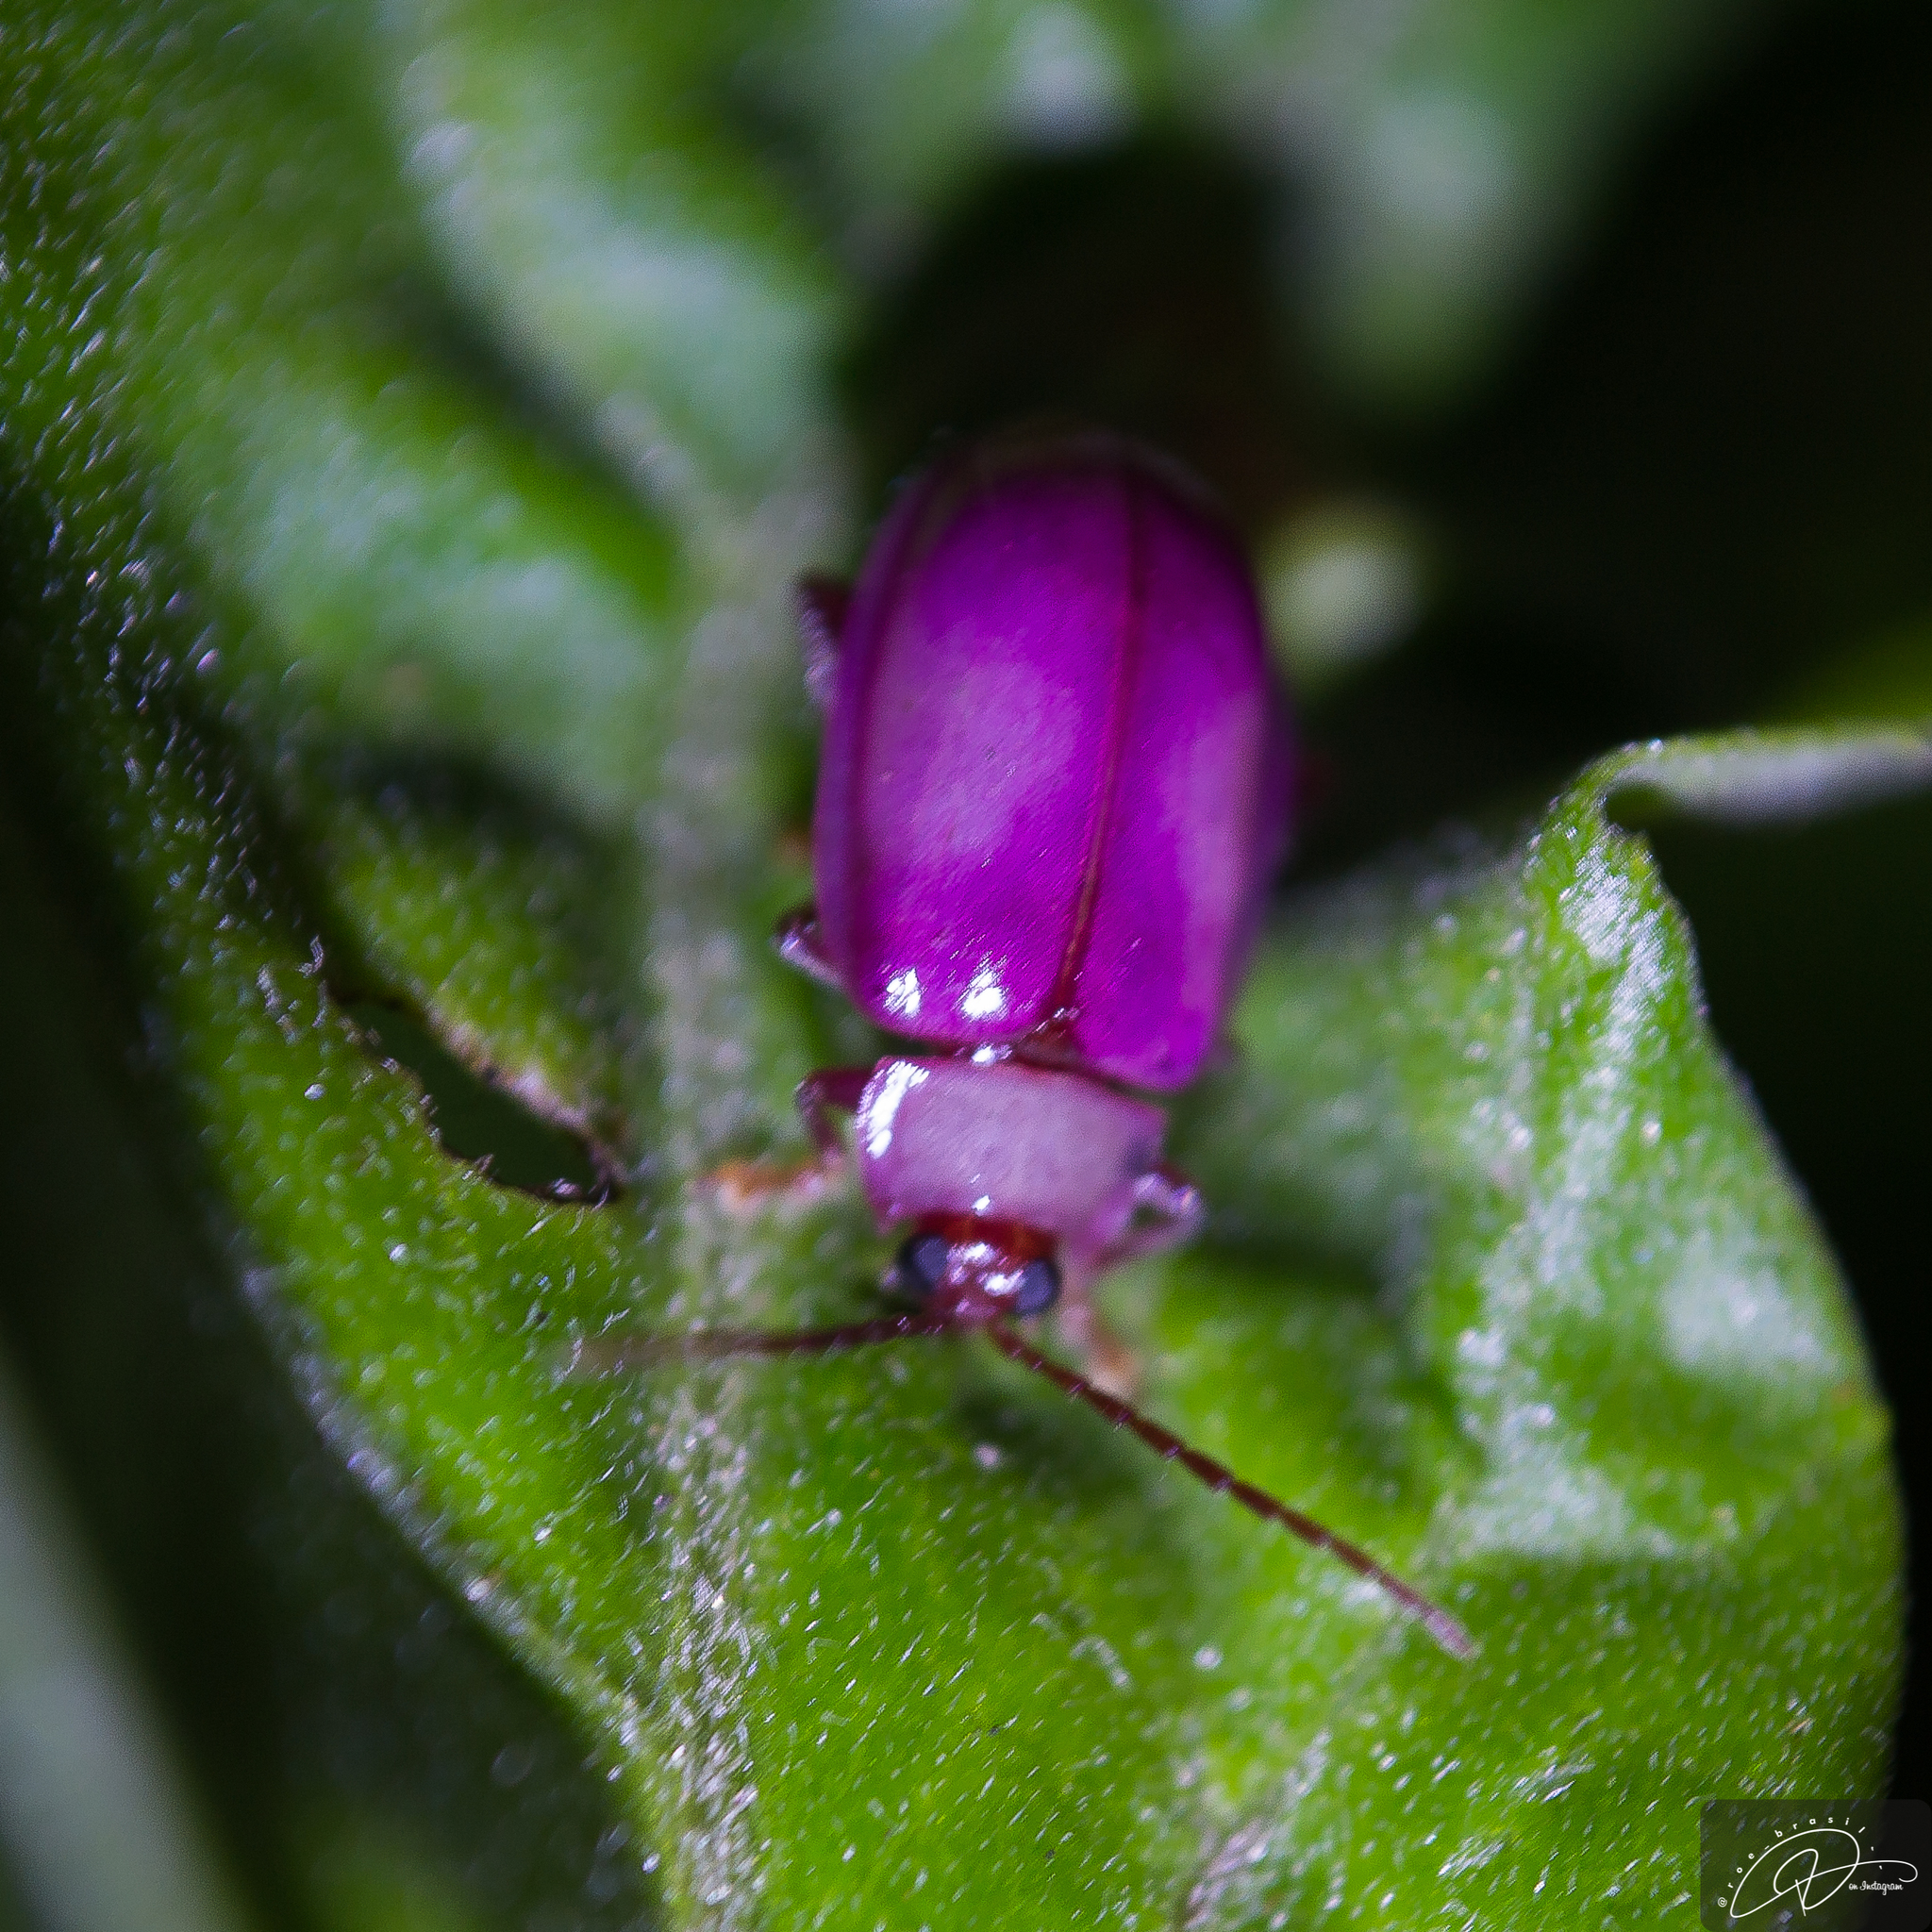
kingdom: Animalia
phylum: Arthropoda
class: Insecta
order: Coleoptera
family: Chrysomelidae
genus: Asphaera
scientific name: Asphaera
